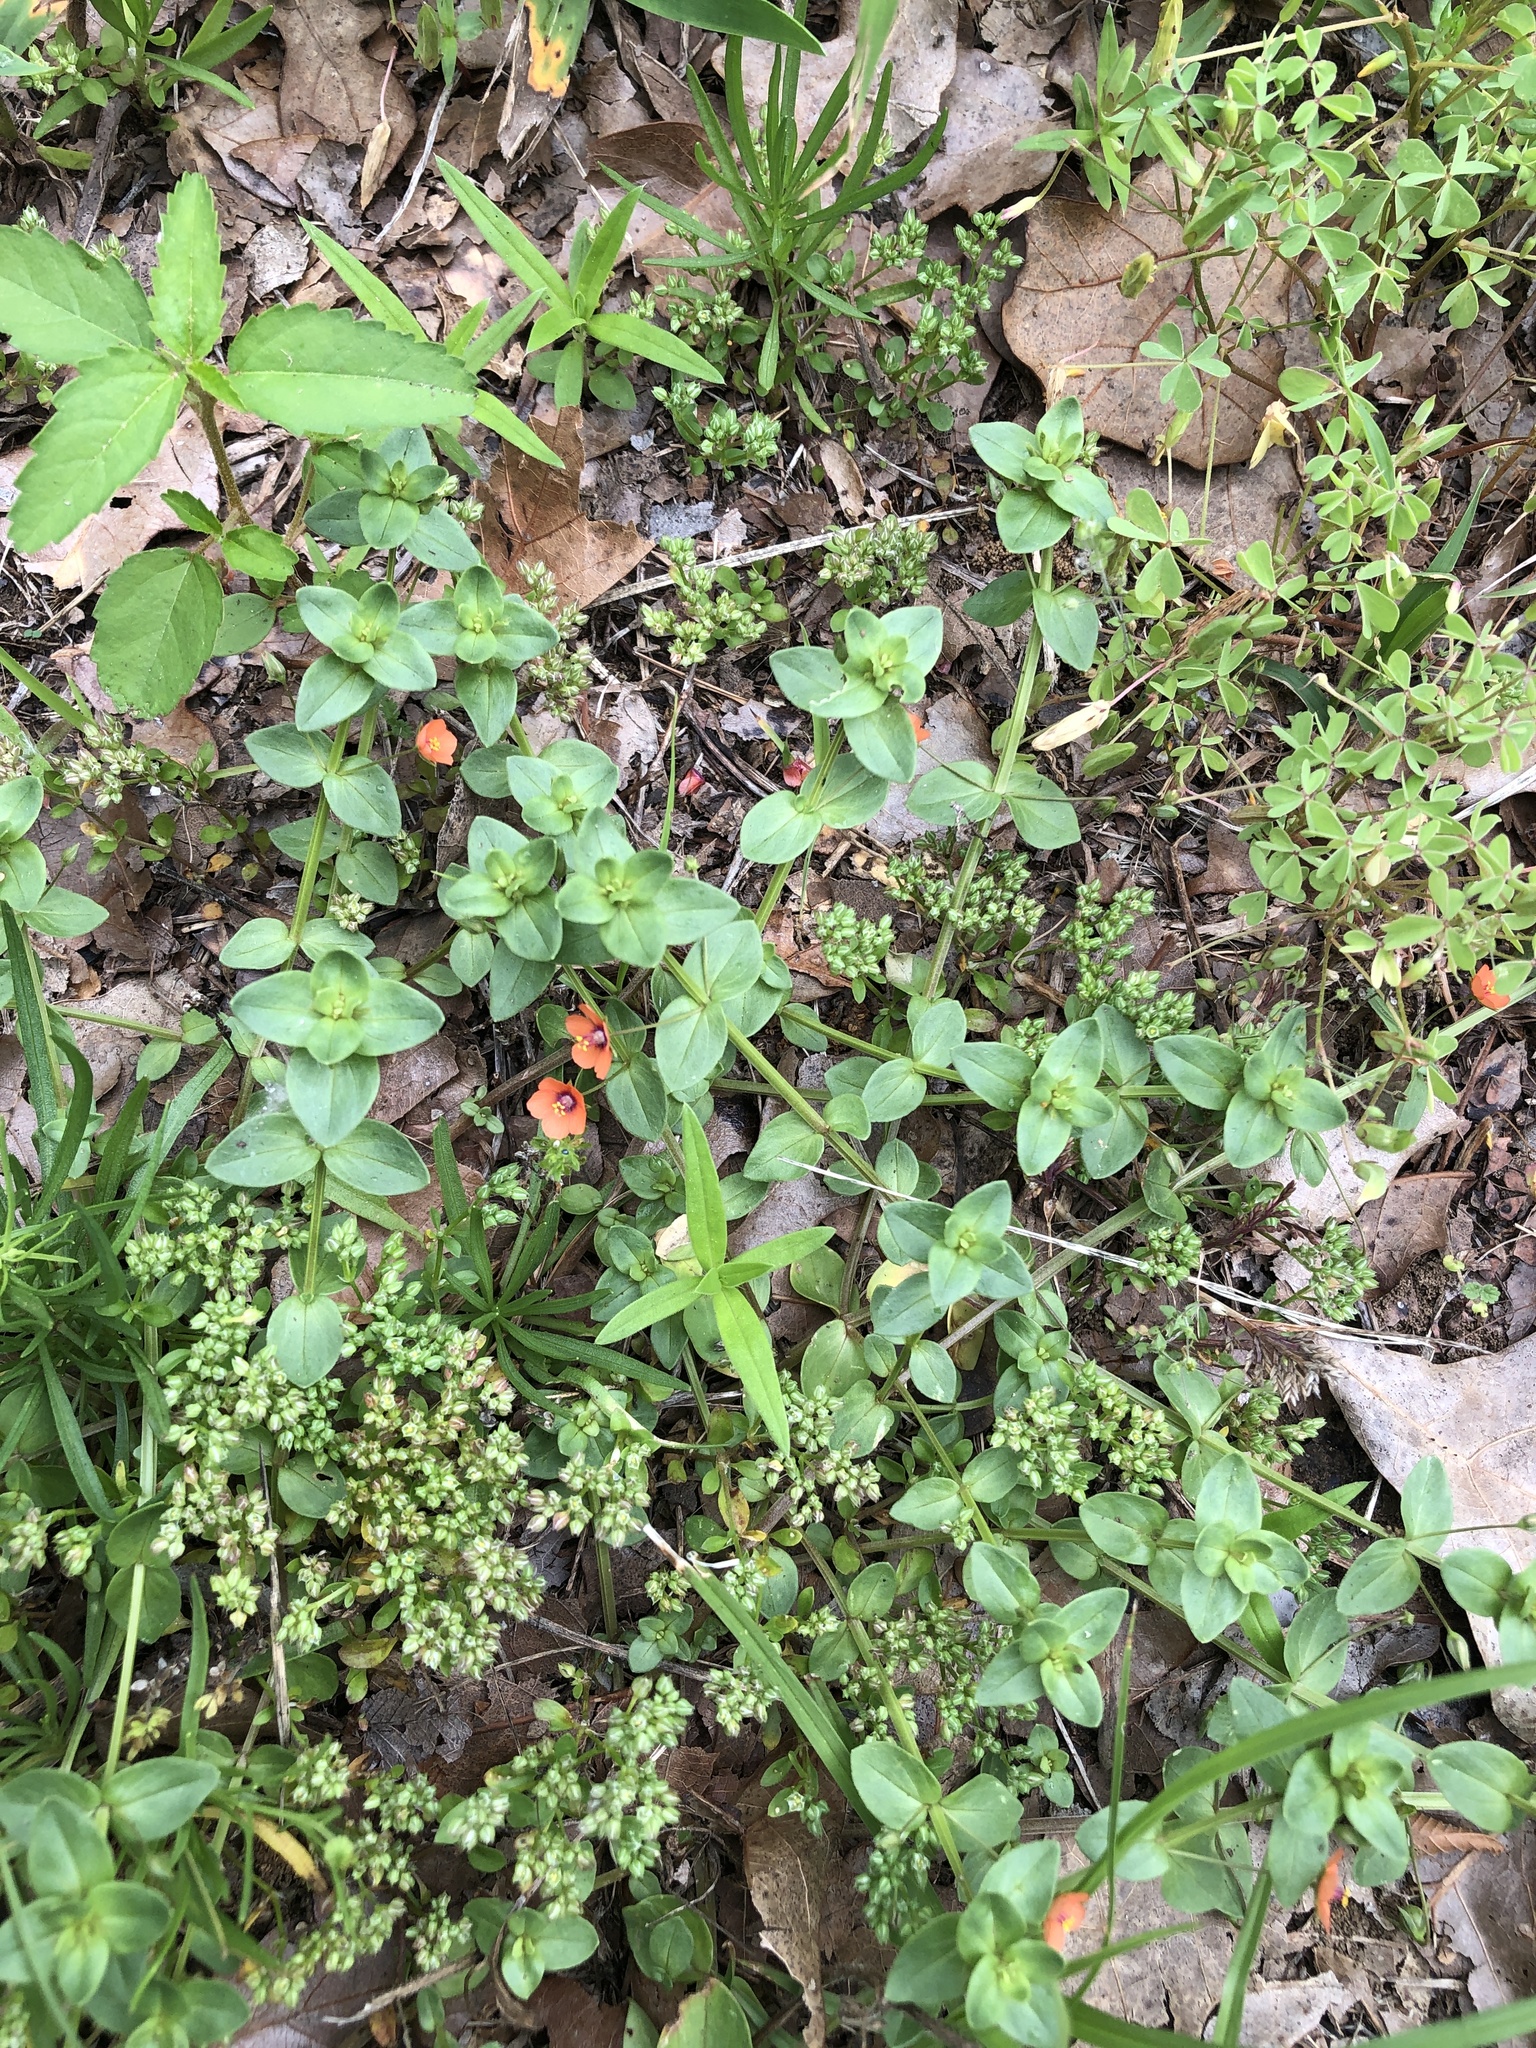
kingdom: Plantae
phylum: Tracheophyta
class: Magnoliopsida
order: Ericales
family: Primulaceae
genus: Lysimachia
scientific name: Lysimachia arvensis
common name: Scarlet pimpernel
